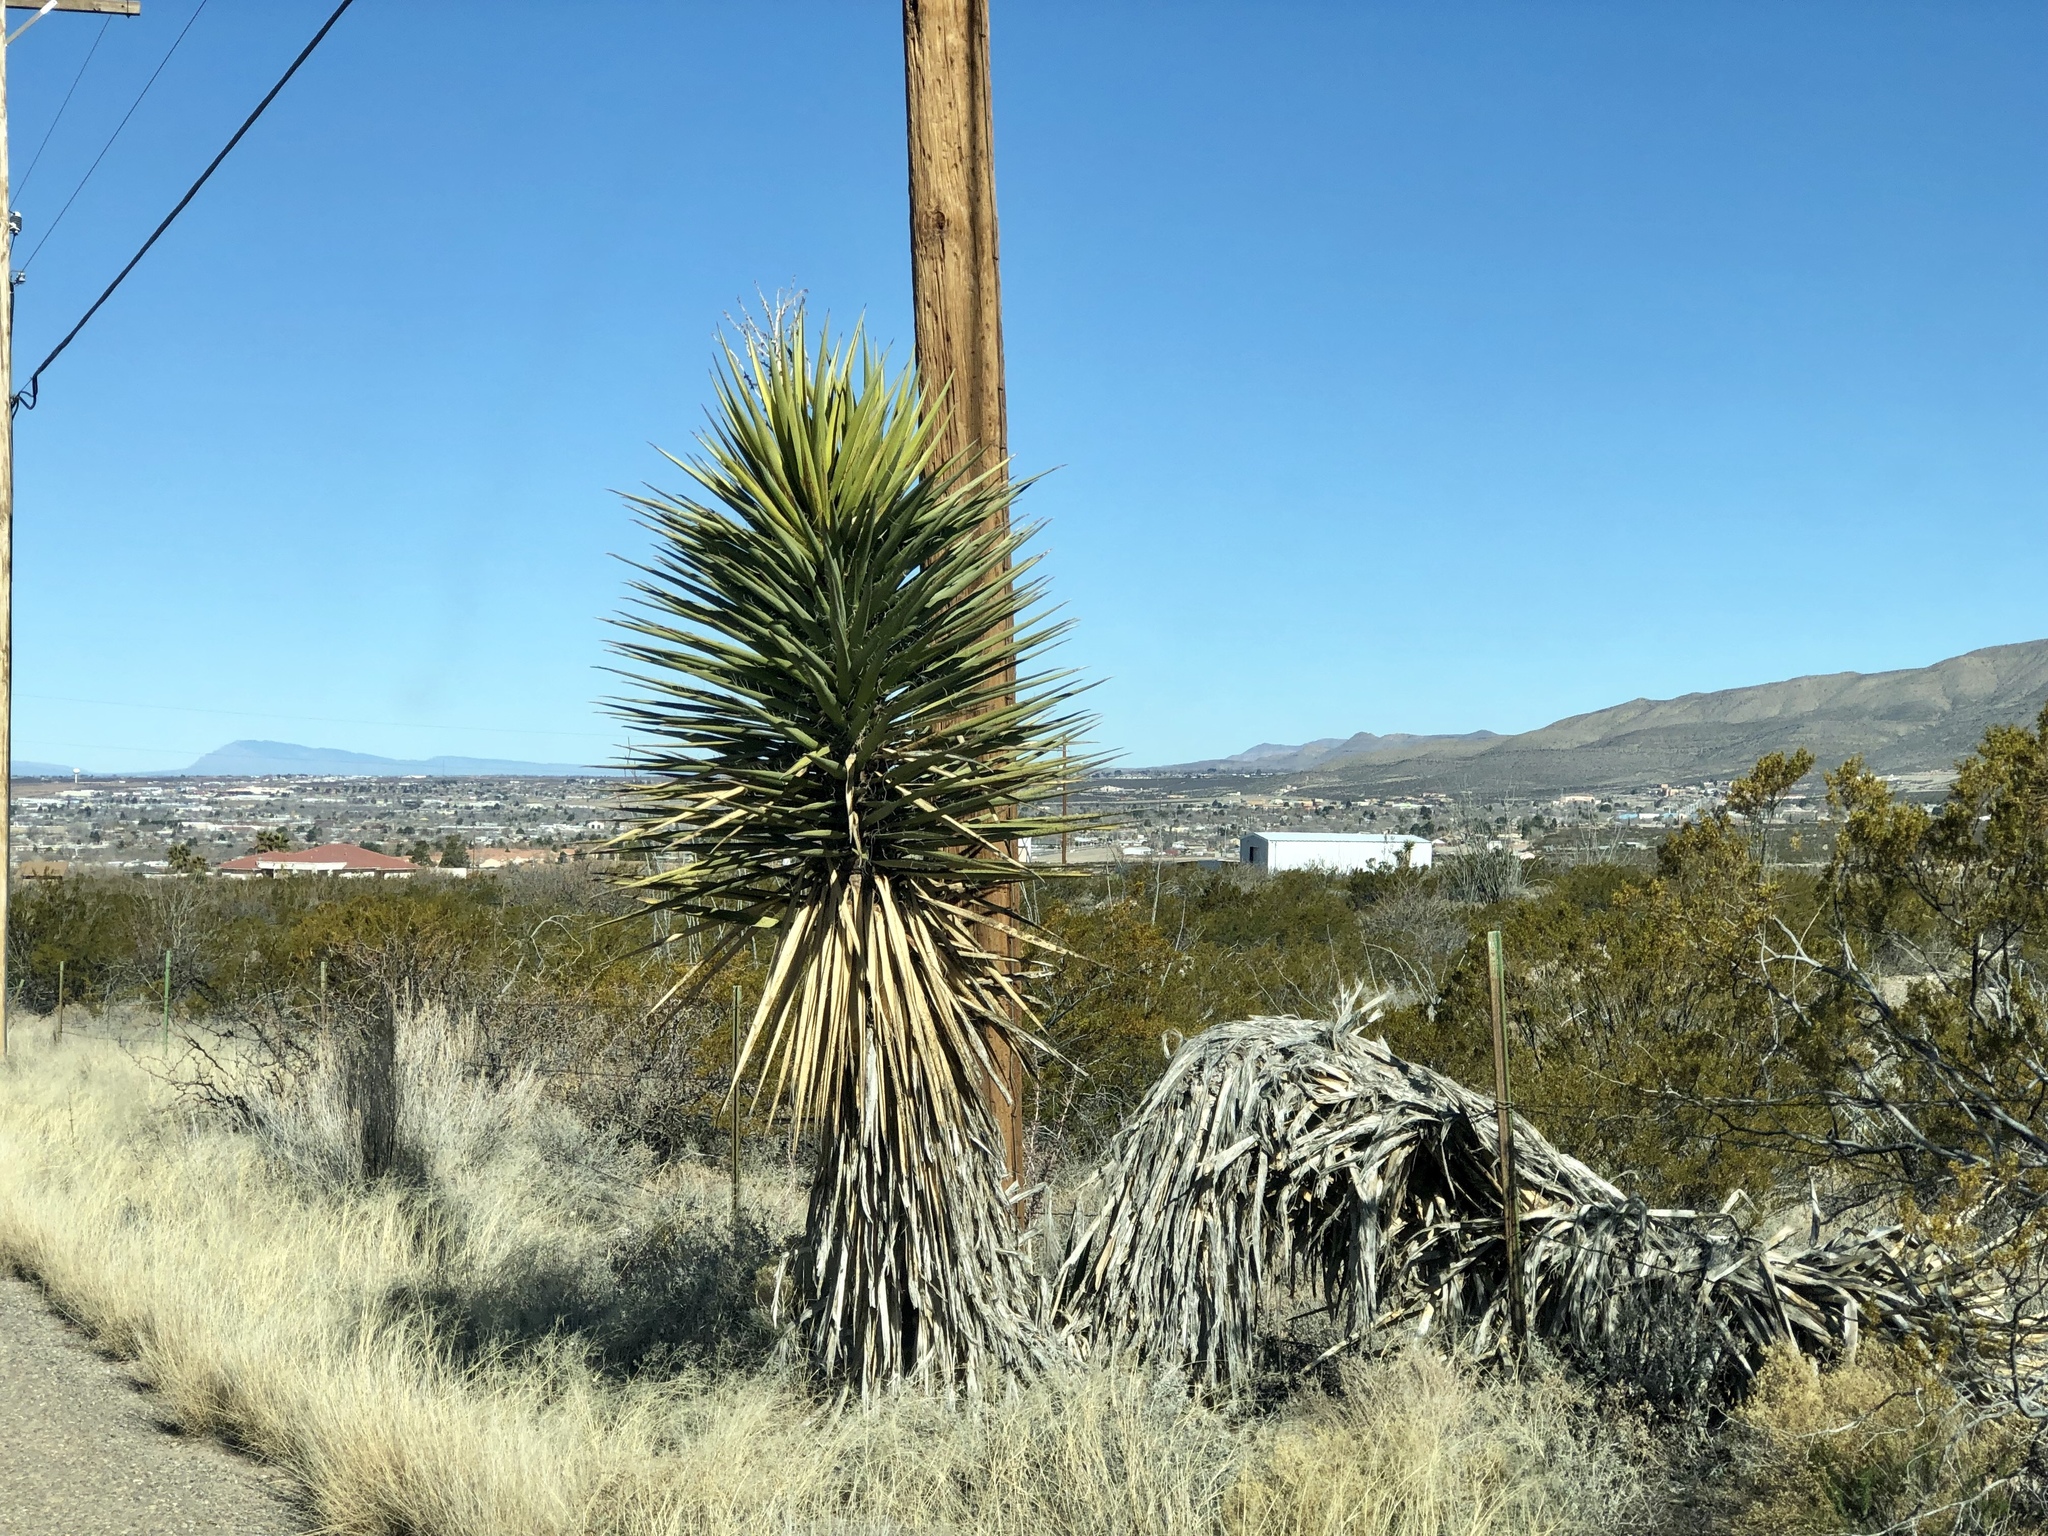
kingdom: Plantae
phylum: Tracheophyta
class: Liliopsida
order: Asparagales
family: Asparagaceae
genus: Yucca
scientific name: Yucca treculiana
